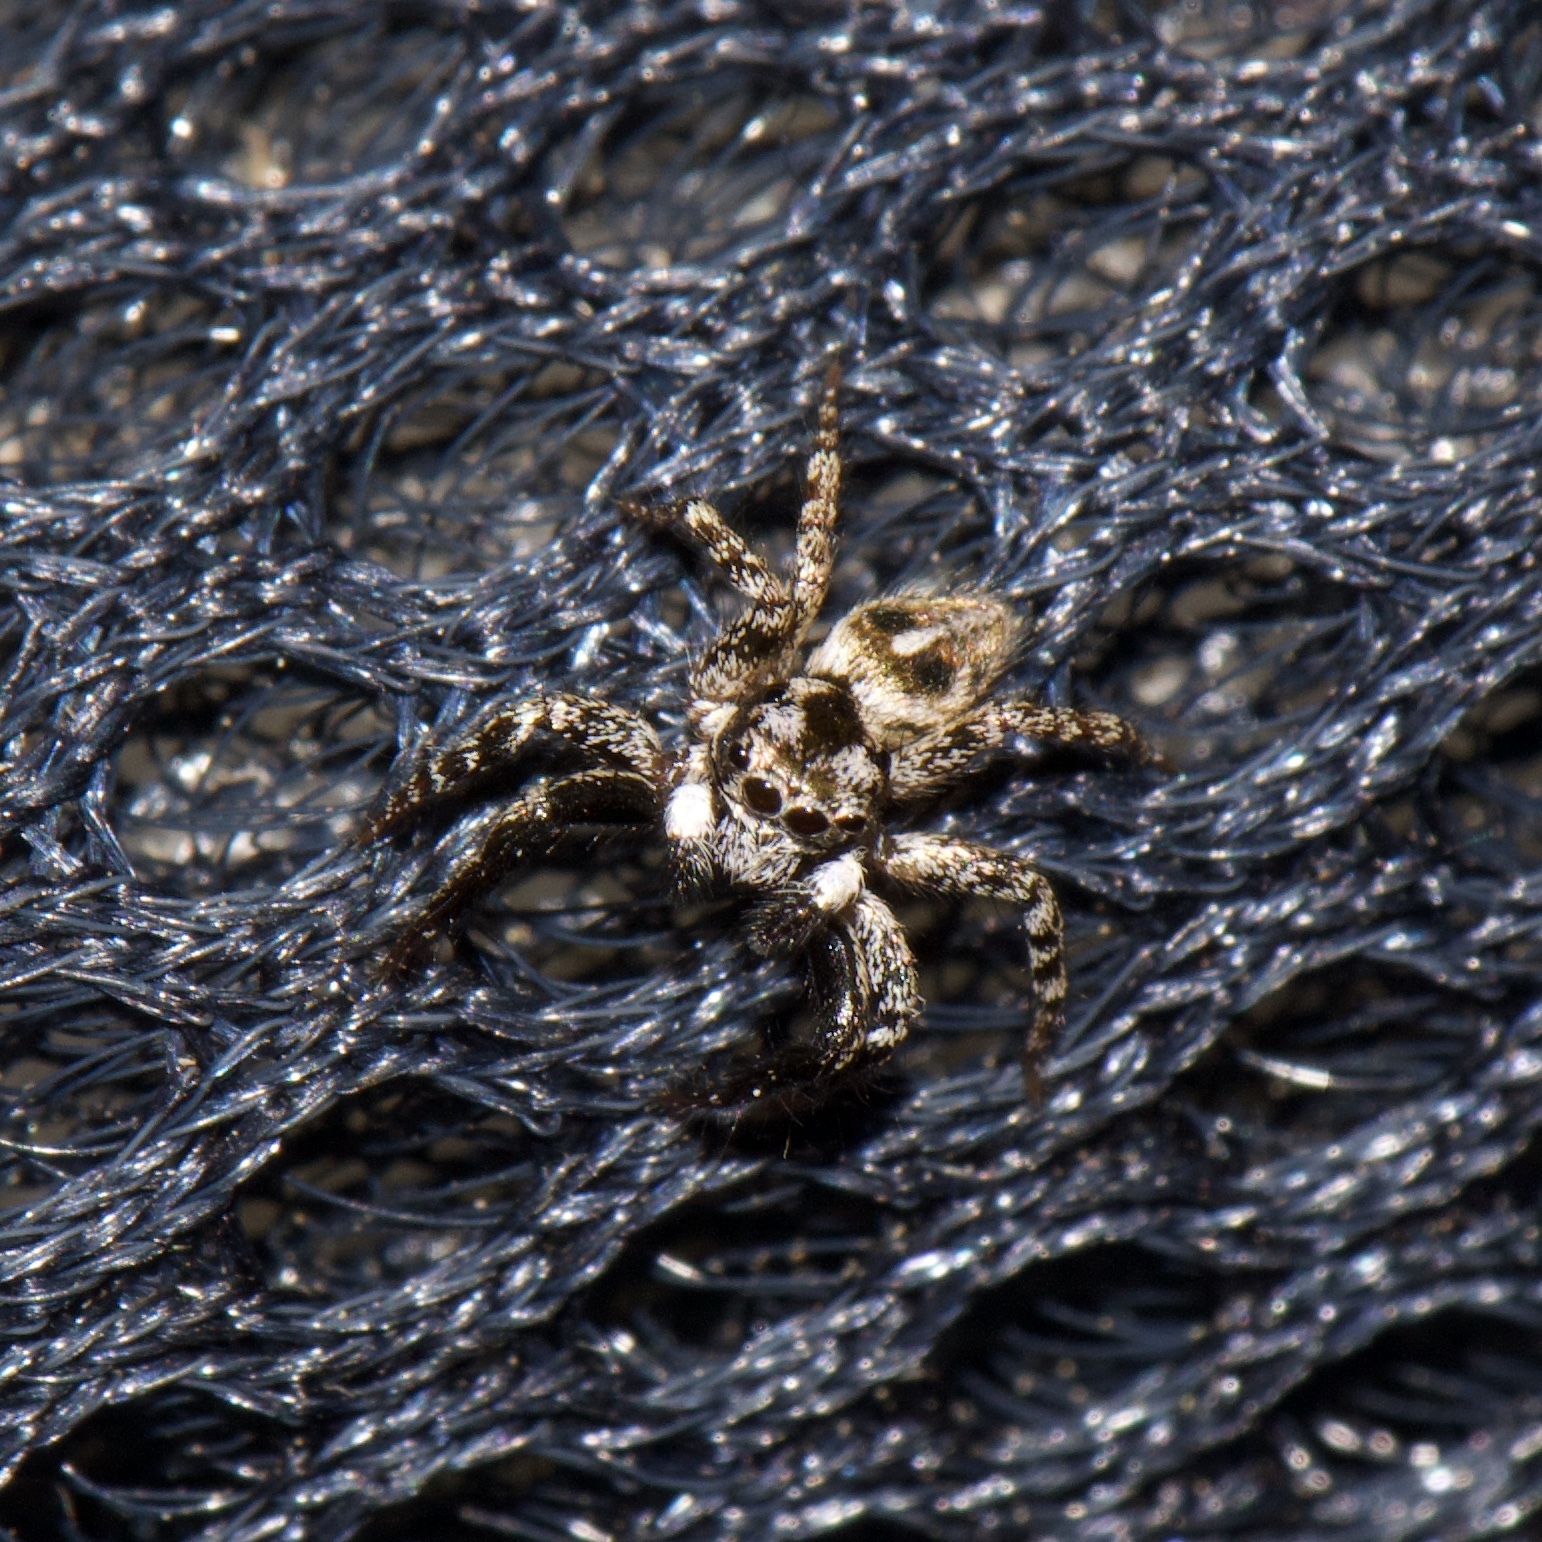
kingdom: Animalia
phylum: Arthropoda
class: Arachnida
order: Araneae
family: Salticidae
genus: Anasaitis
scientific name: Anasaitis canosa
